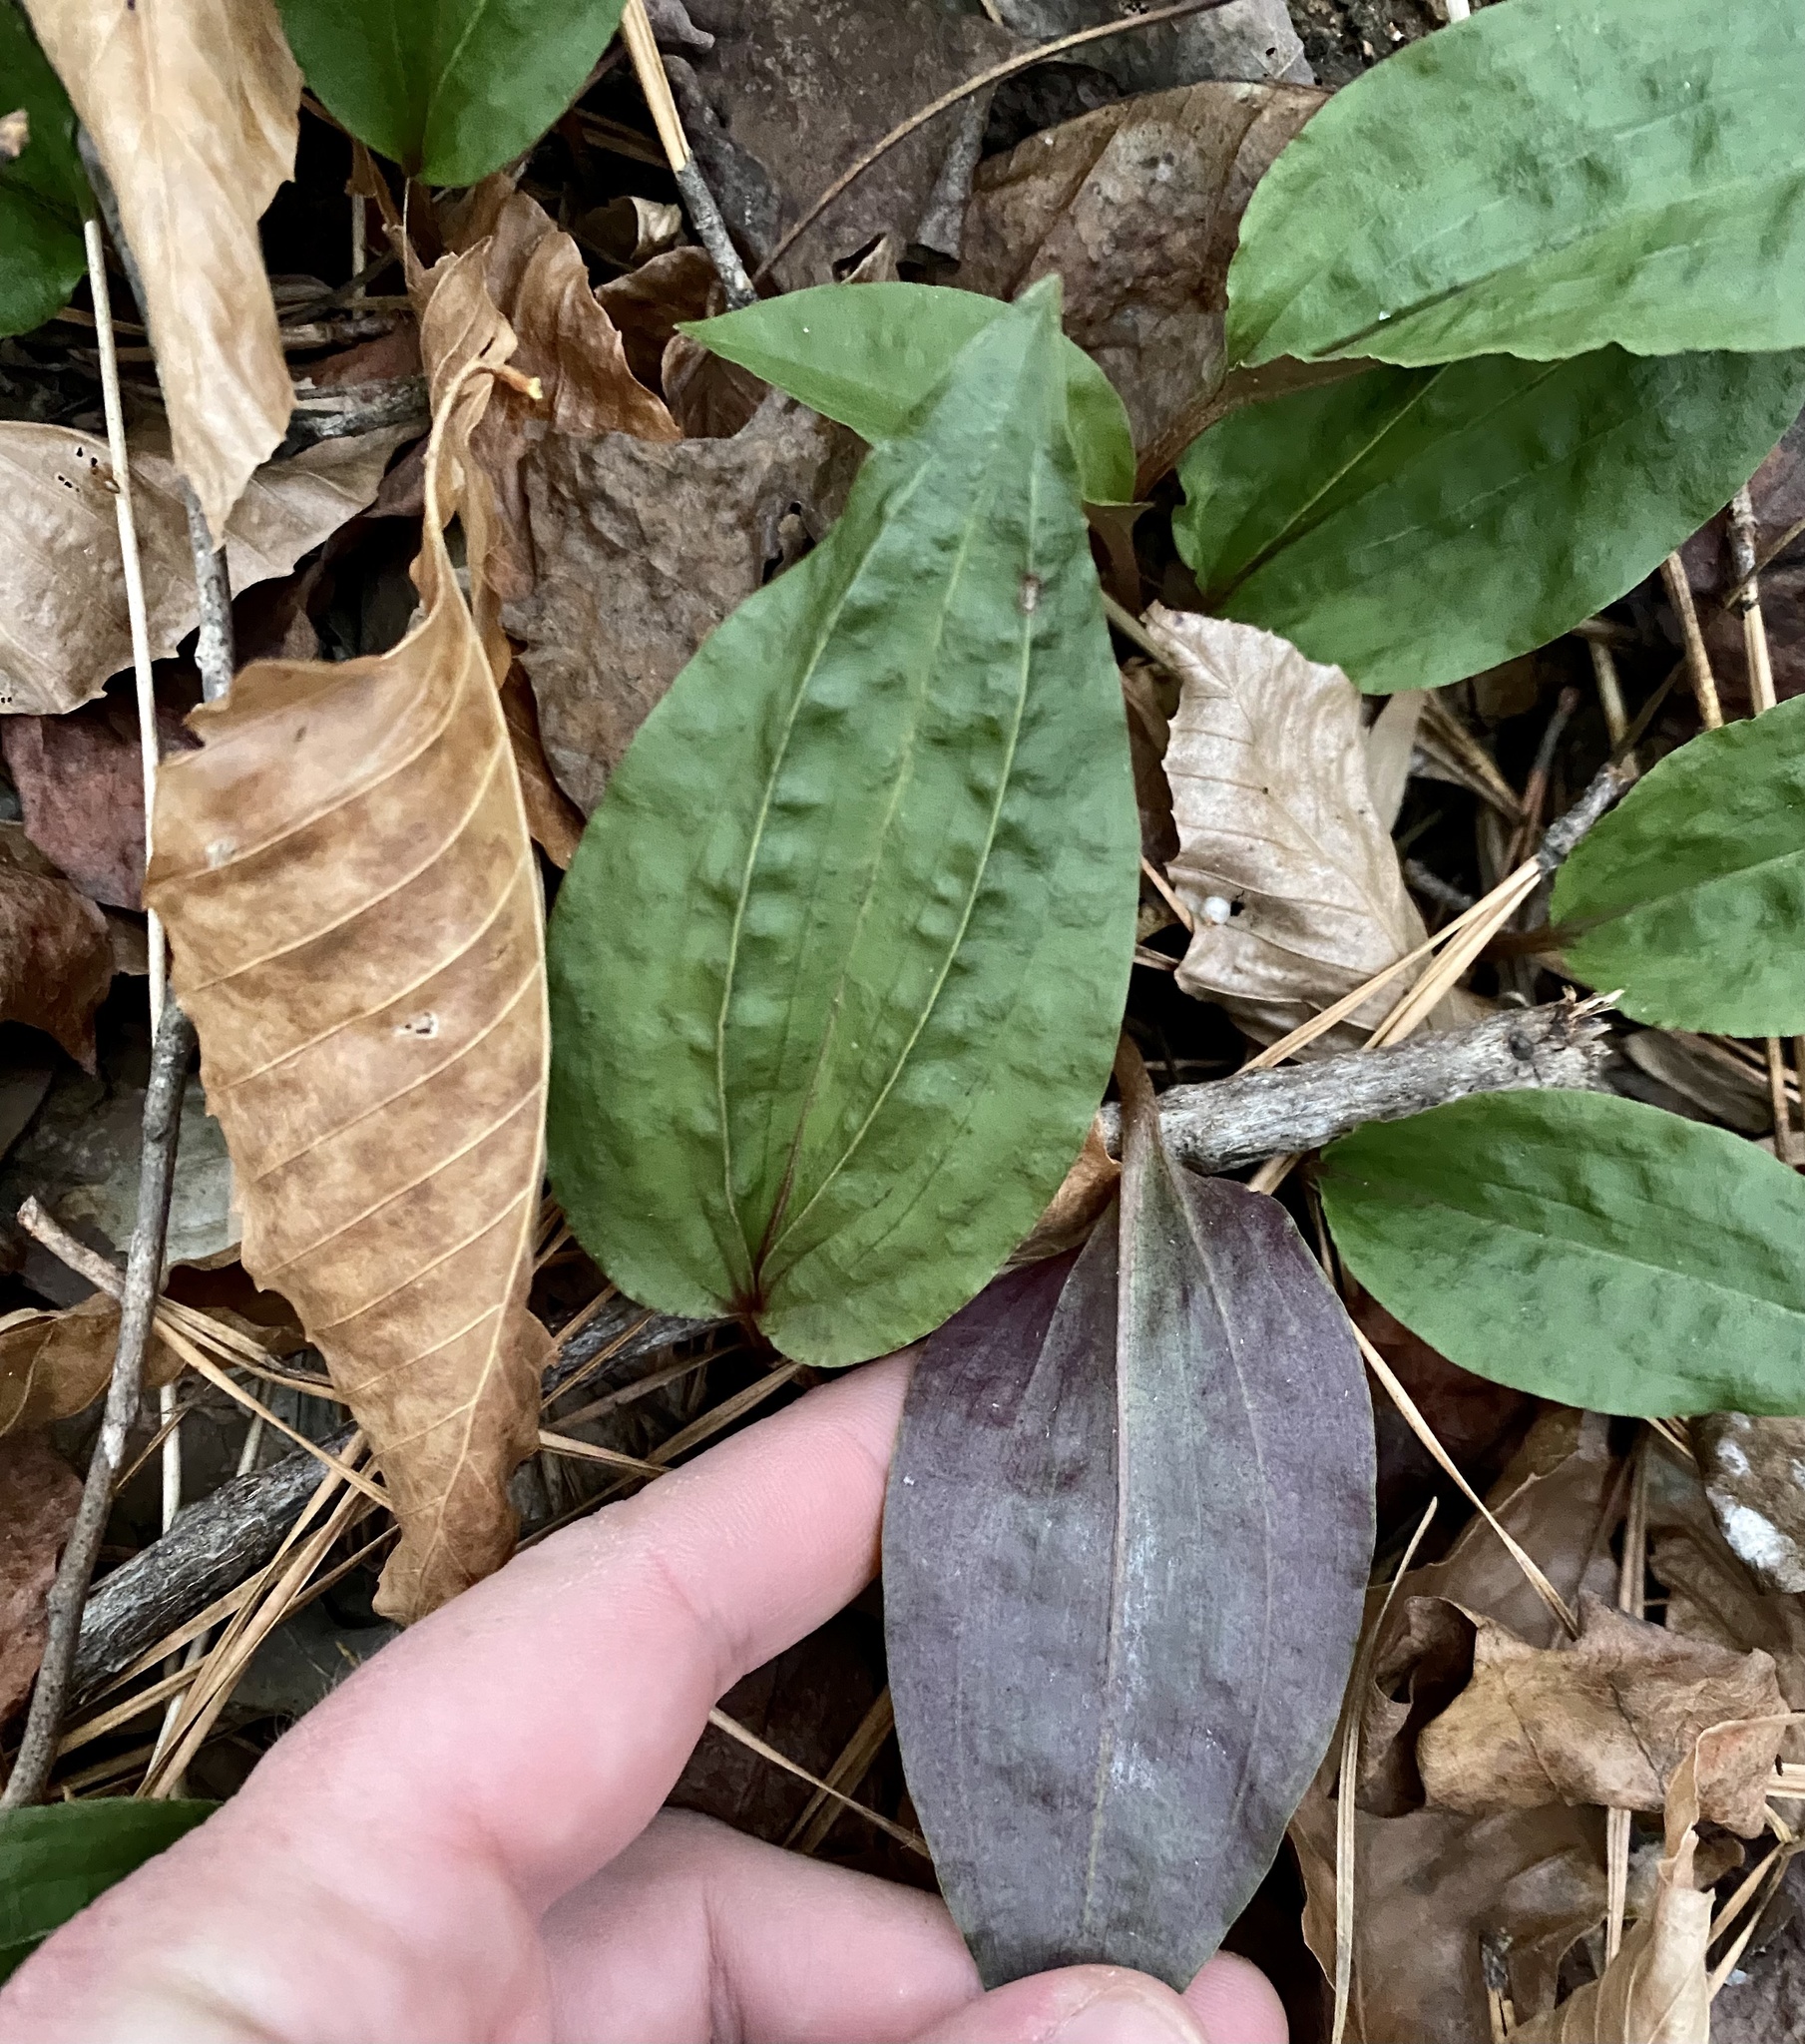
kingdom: Plantae
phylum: Tracheophyta
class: Liliopsida
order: Asparagales
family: Orchidaceae
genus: Tipularia
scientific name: Tipularia discolor
